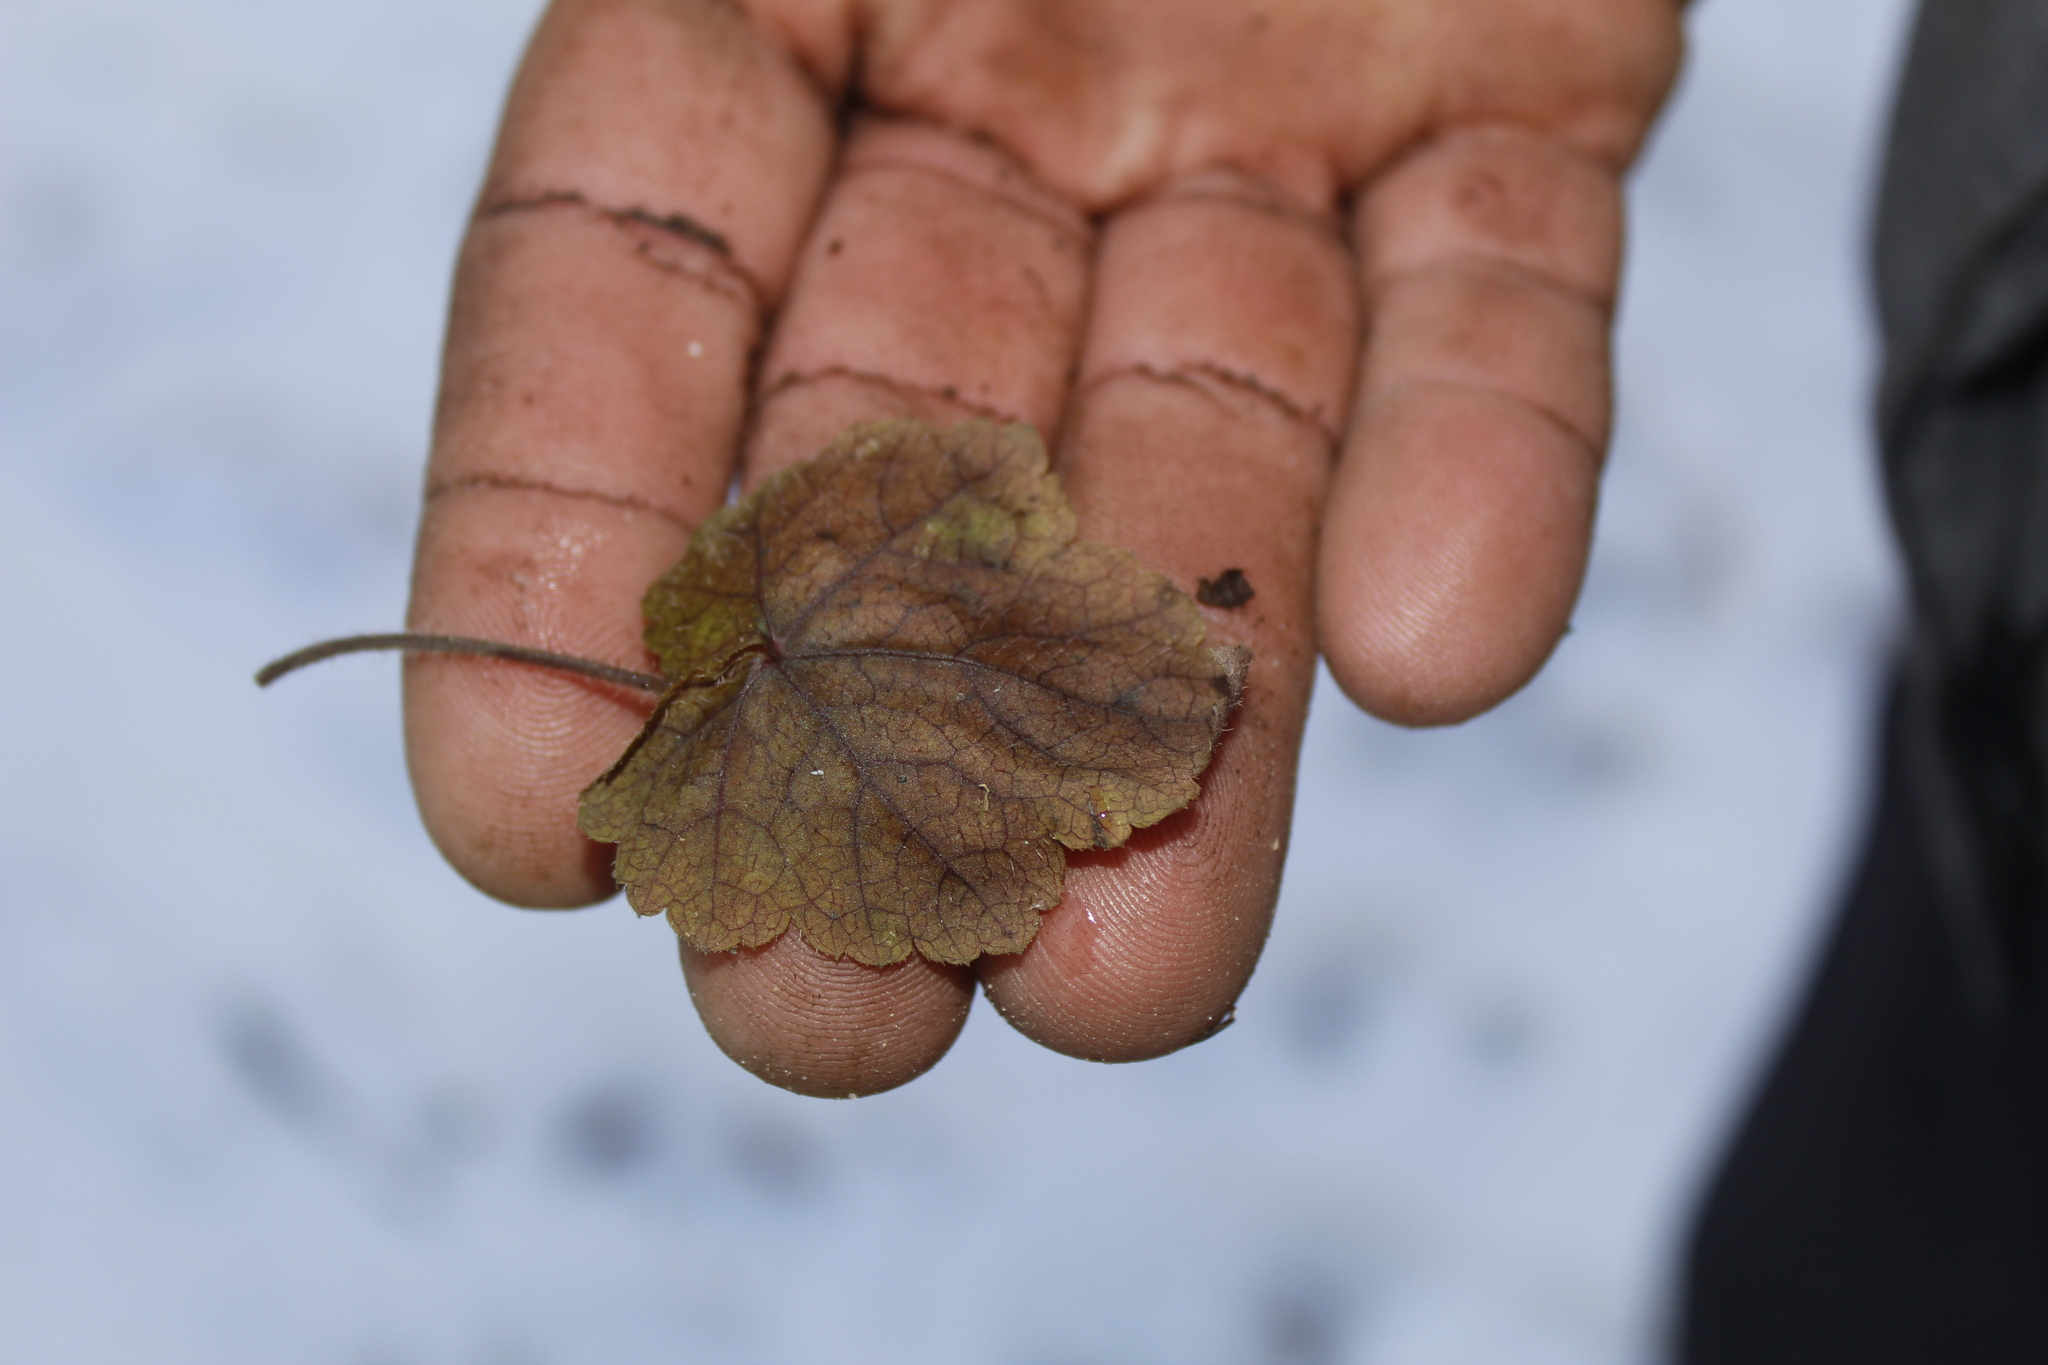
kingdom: Plantae
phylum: Tracheophyta
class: Magnoliopsida
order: Saxifragales
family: Saxifragaceae
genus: Tiarella
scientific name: Tiarella stolonifera
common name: Stoloniferous foamflower
